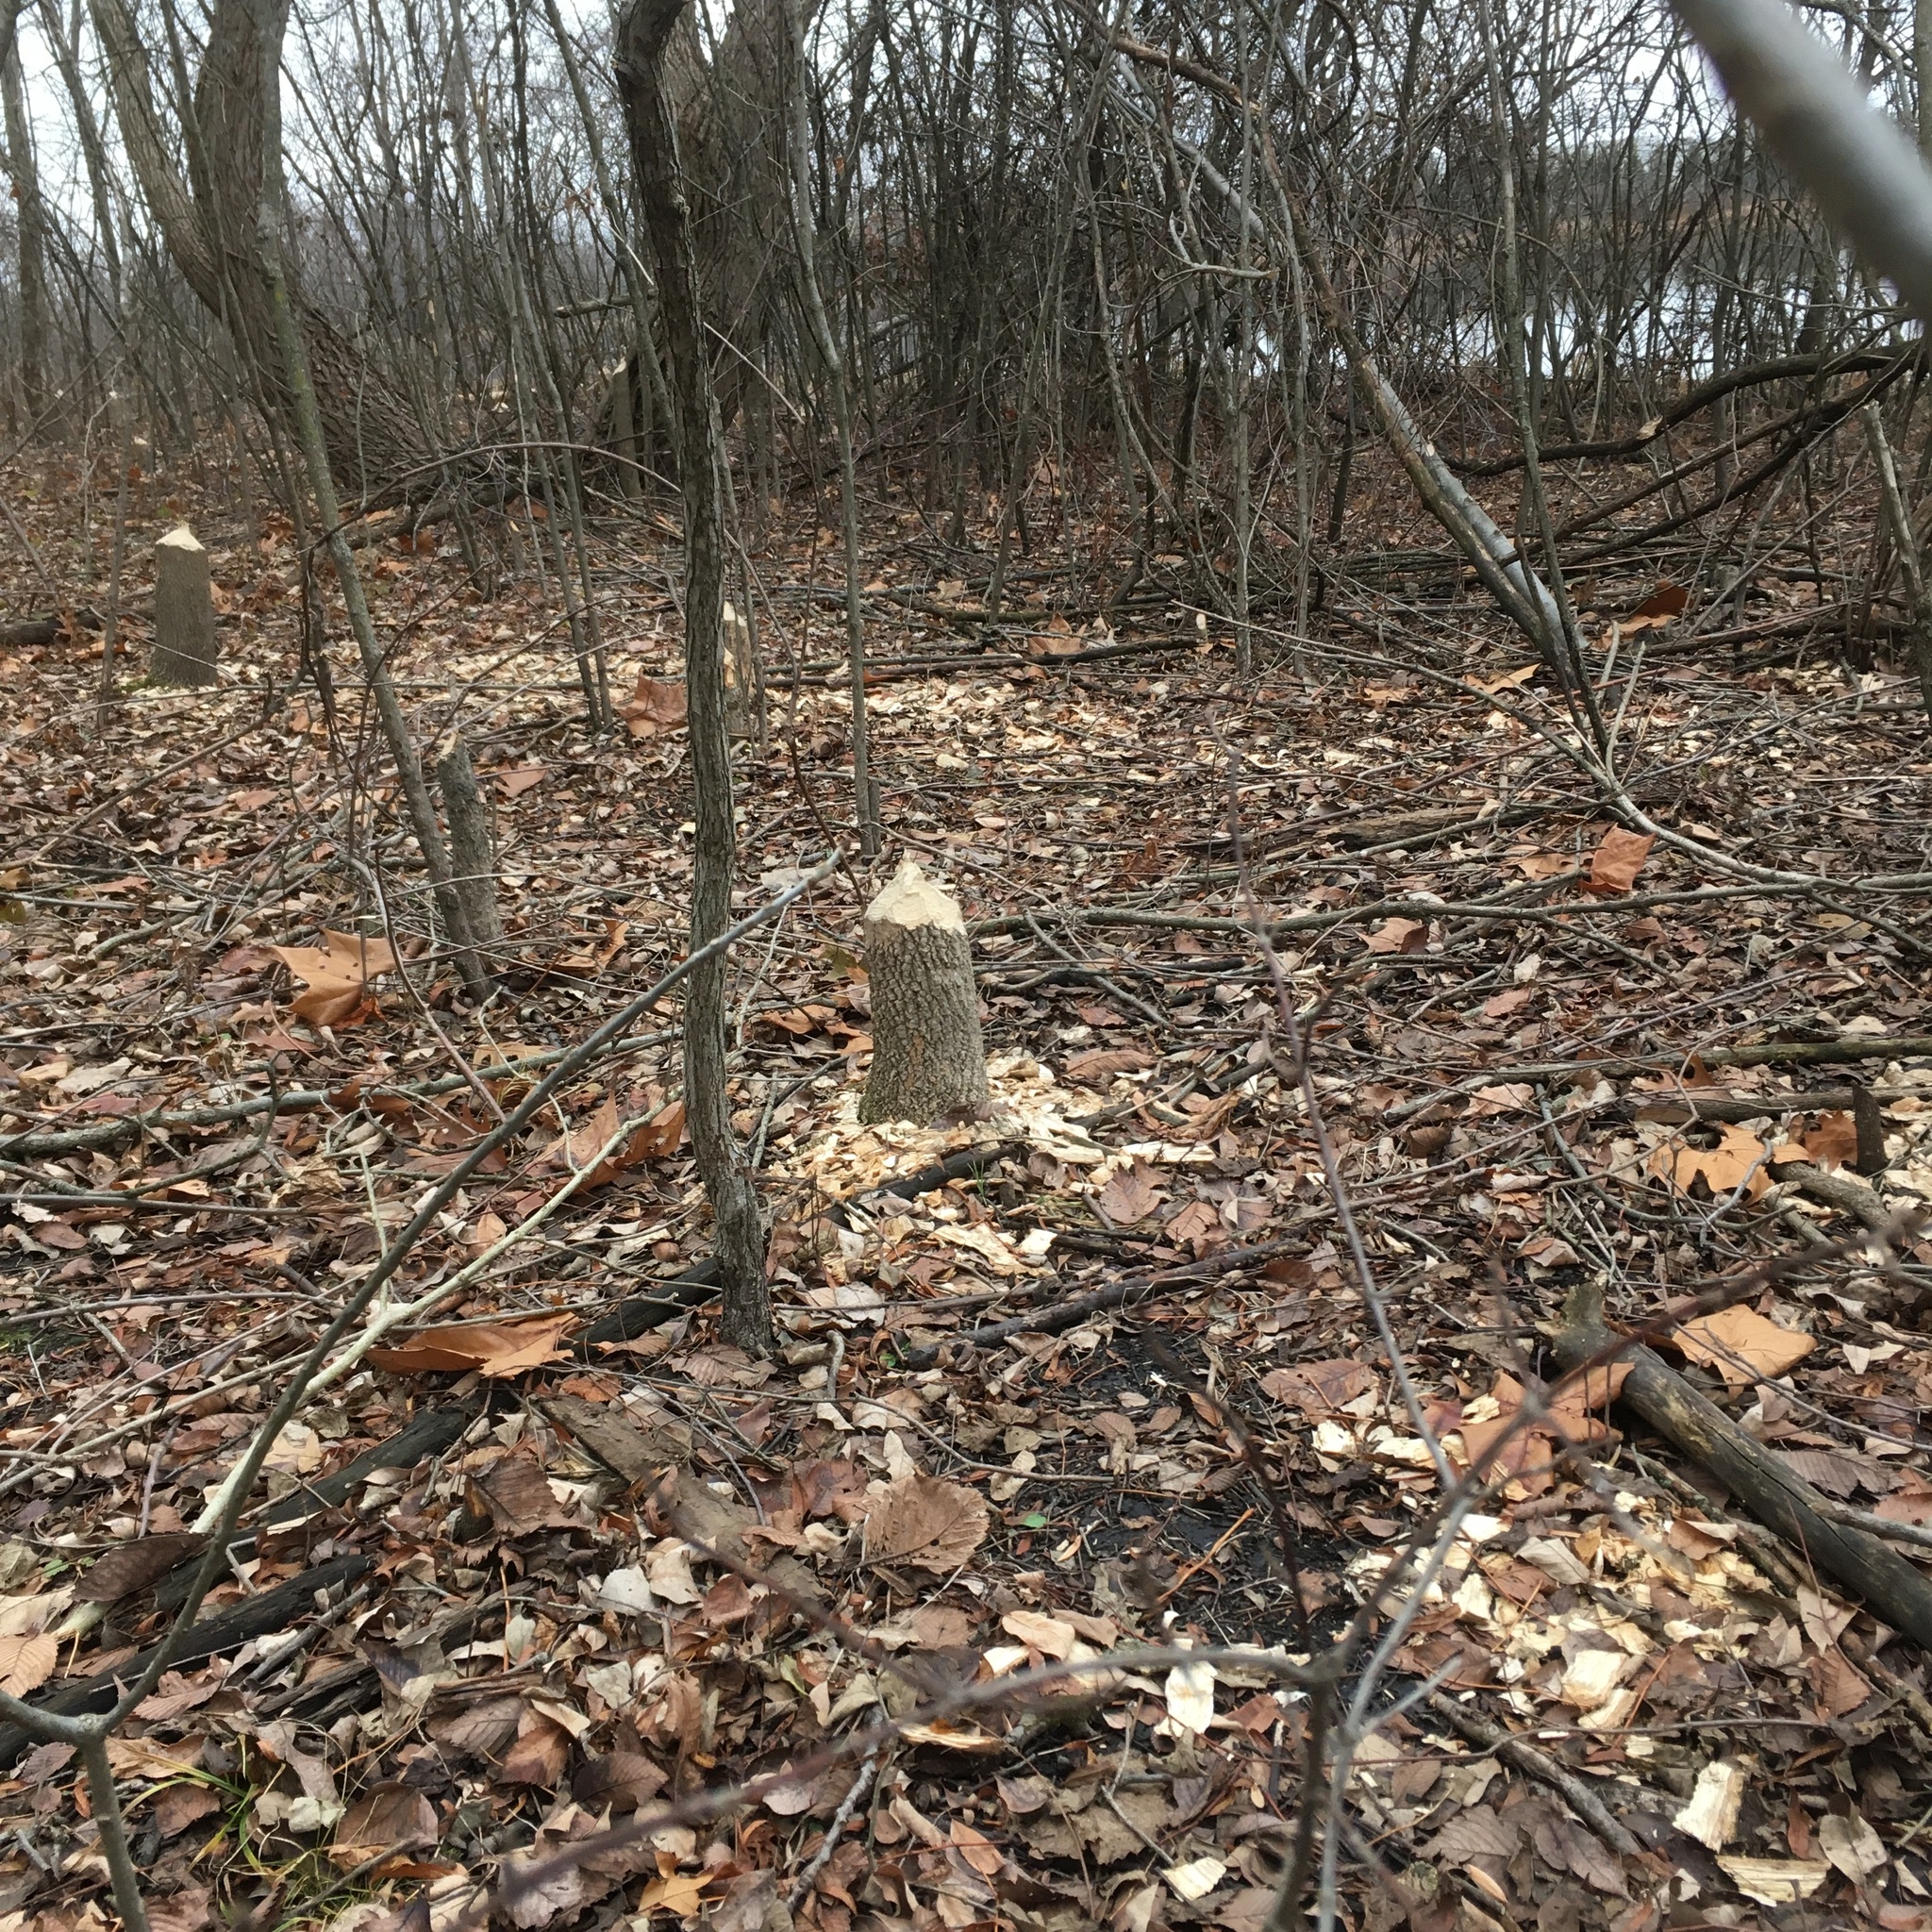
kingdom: Animalia
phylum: Chordata
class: Mammalia
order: Rodentia
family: Castoridae
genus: Castor
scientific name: Castor canadensis
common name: American beaver
